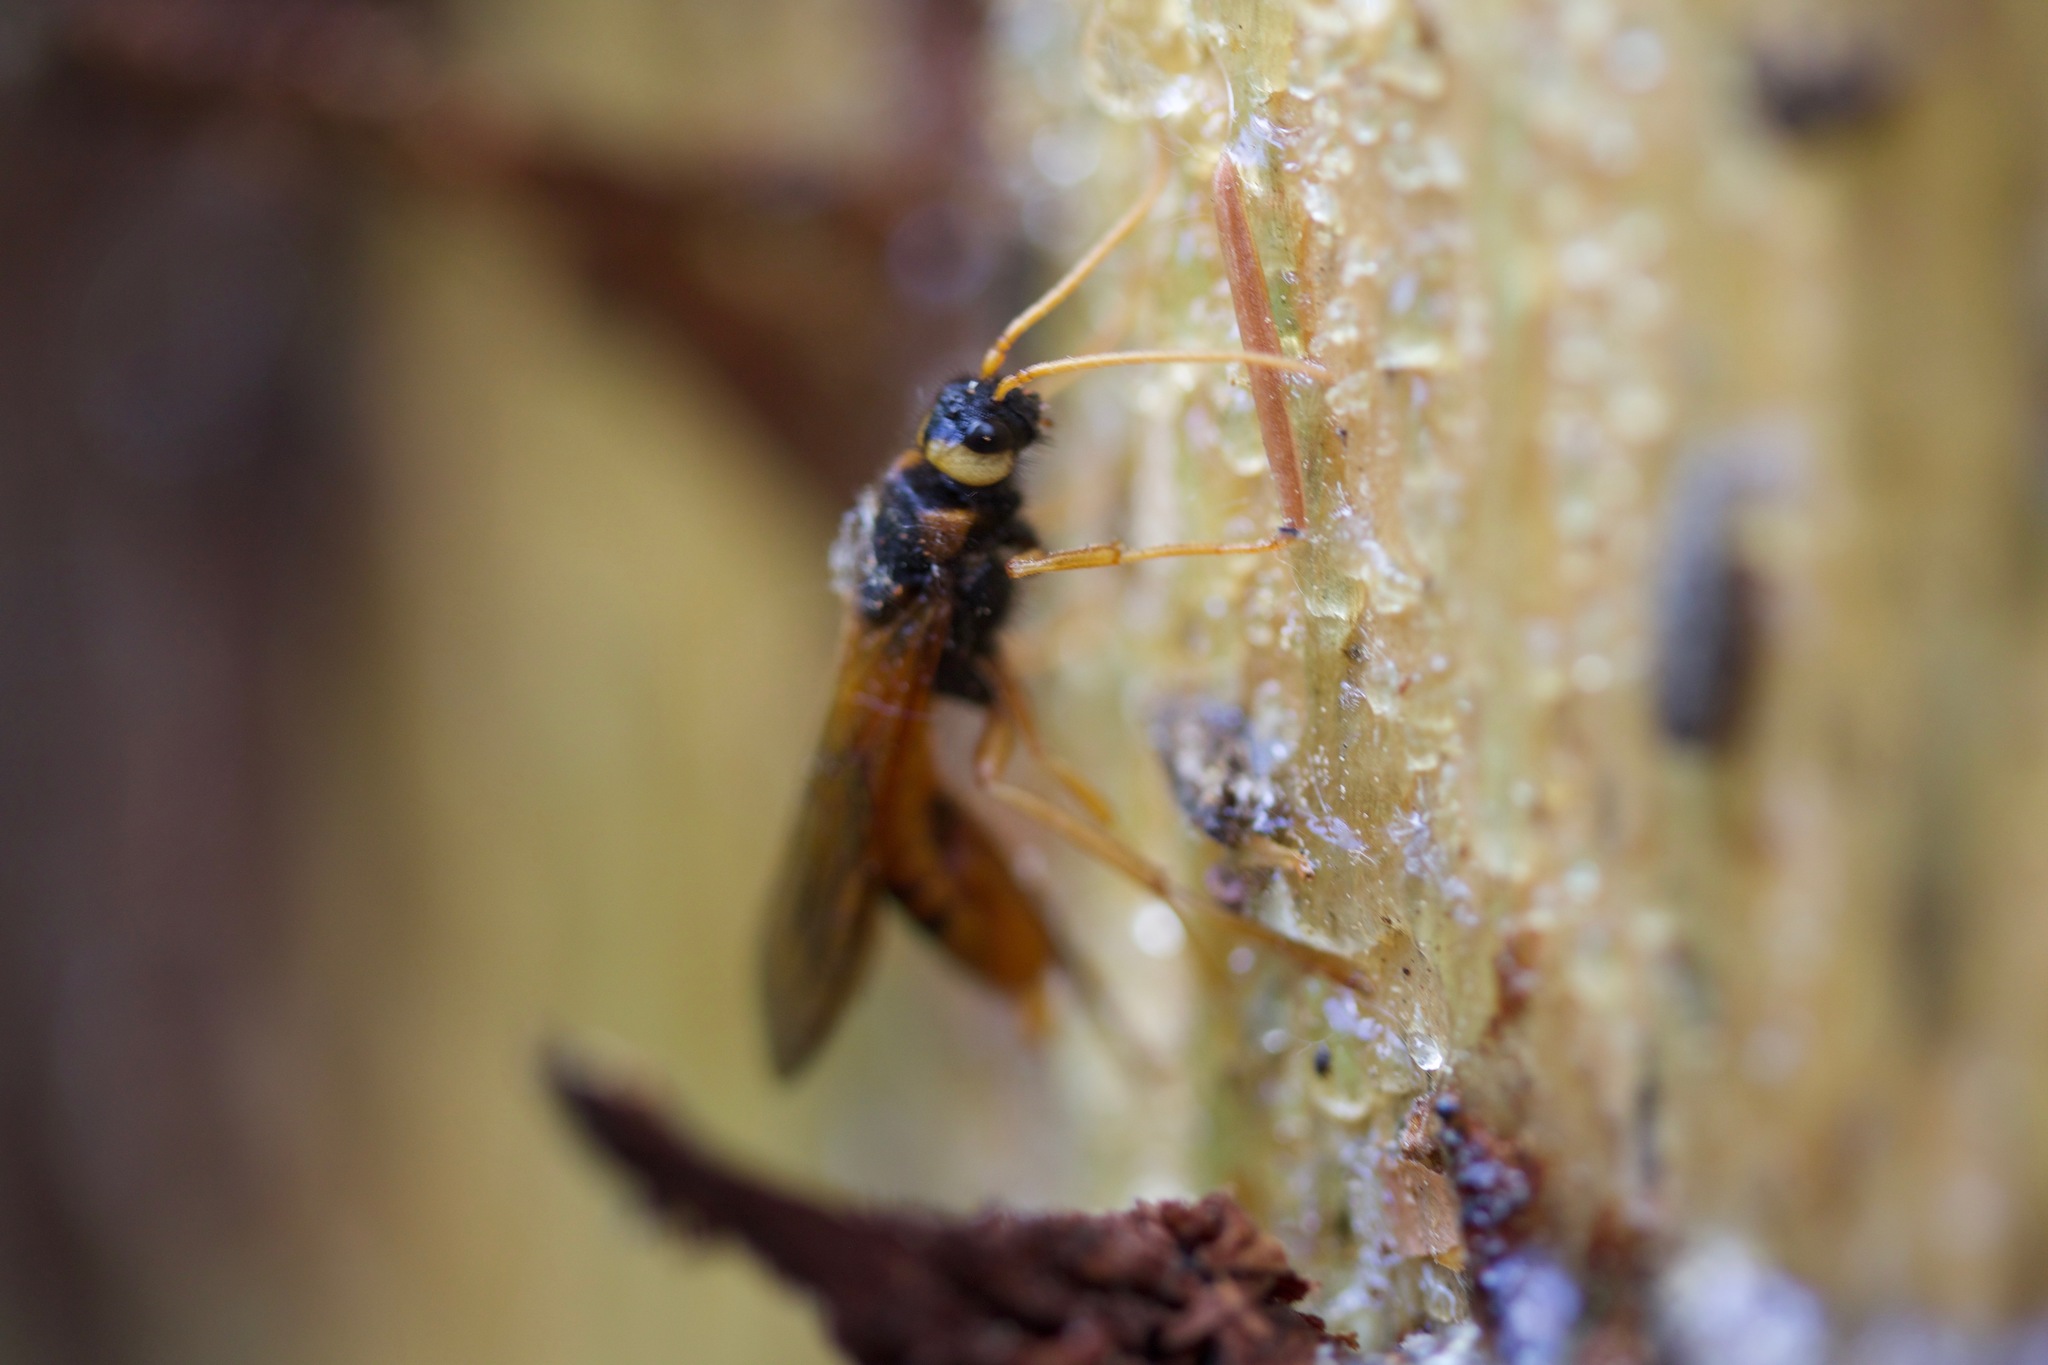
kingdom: Animalia
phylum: Arthropoda
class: Insecta
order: Hymenoptera
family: Siricidae
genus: Urocerus
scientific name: Urocerus fantoma
